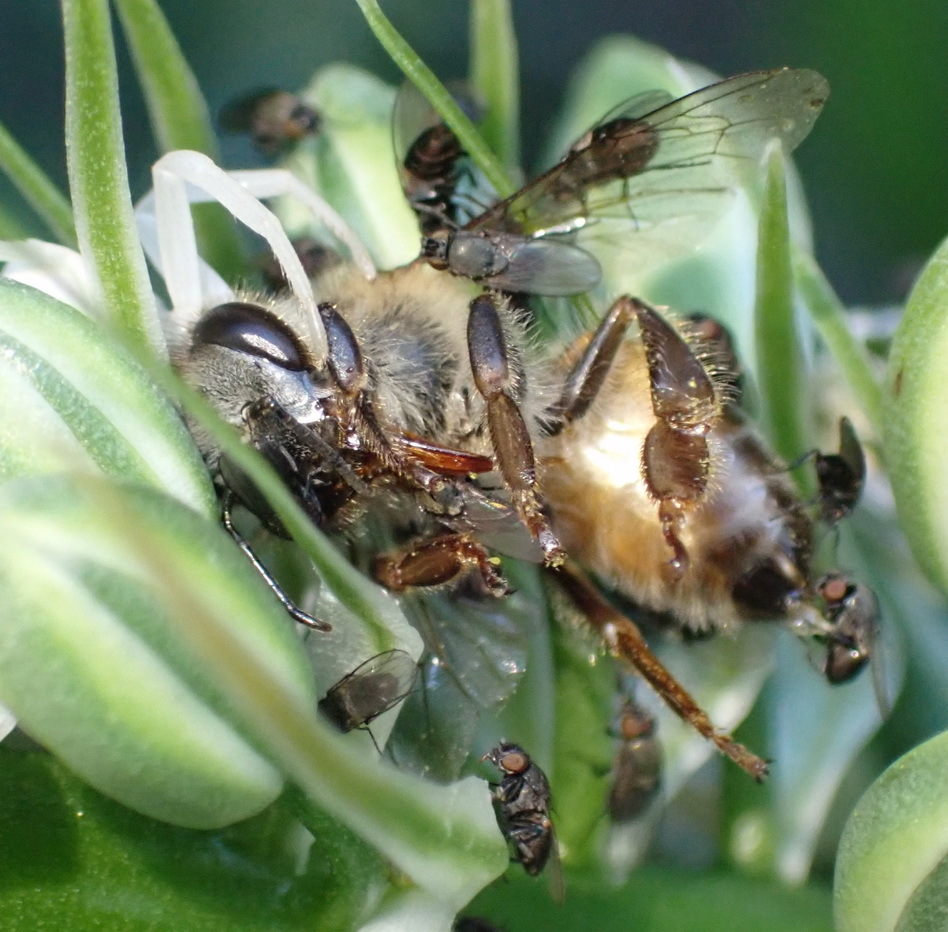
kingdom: Animalia
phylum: Arthropoda
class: Insecta
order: Hymenoptera
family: Apidae
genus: Apis
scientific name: Apis mellifera
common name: Honey bee
